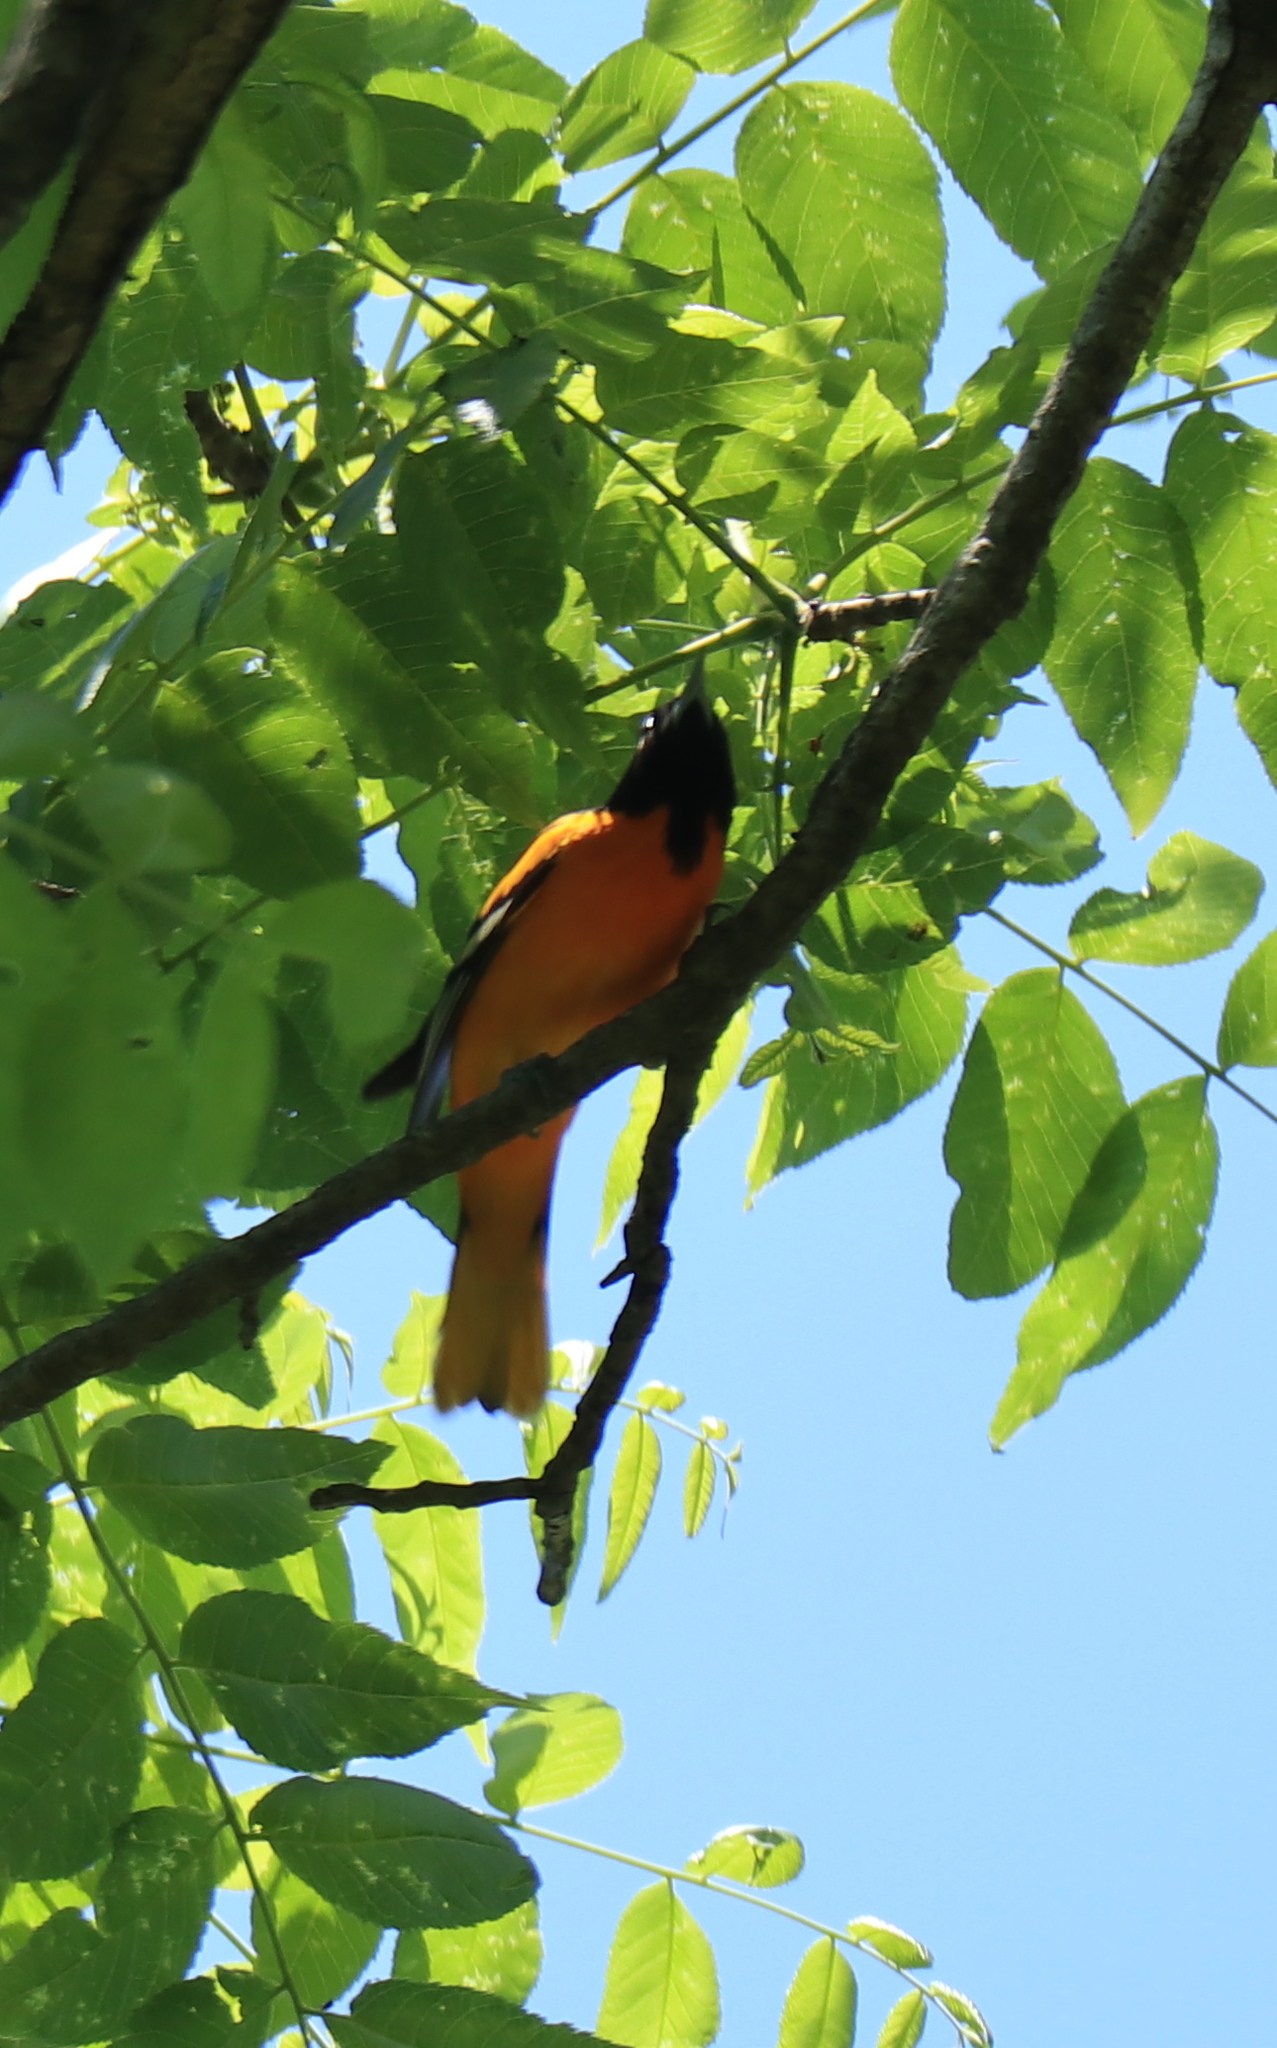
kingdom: Animalia
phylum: Chordata
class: Aves
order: Passeriformes
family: Icteridae
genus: Icterus
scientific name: Icterus galbula
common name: Baltimore oriole
